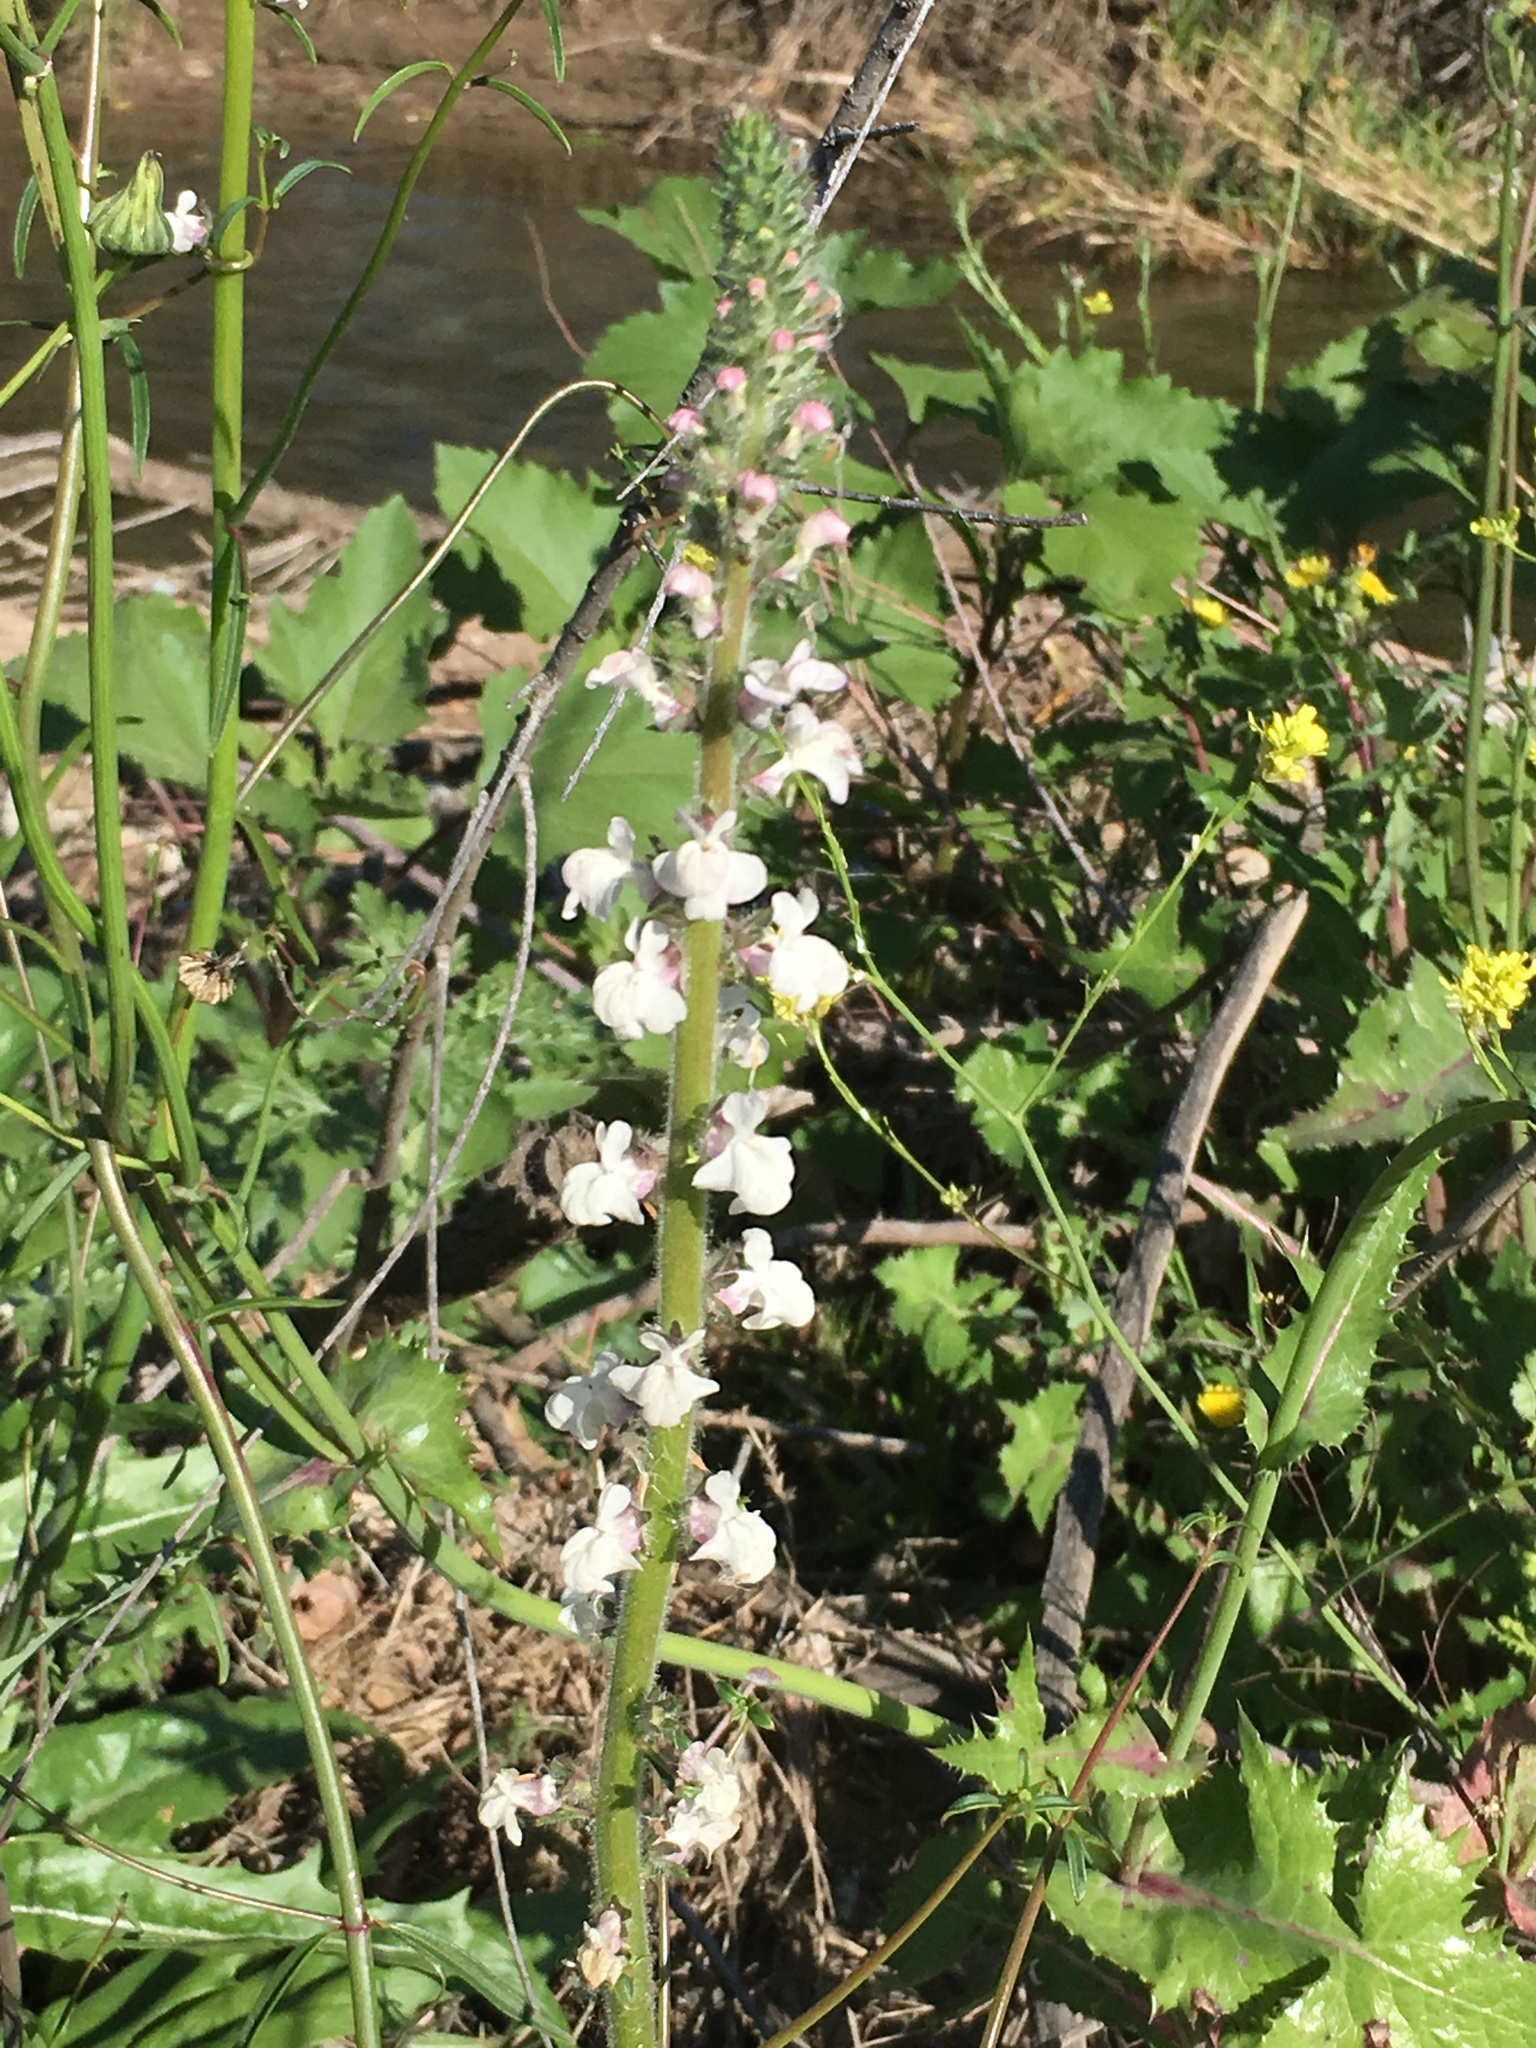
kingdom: Plantae
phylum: Tracheophyta
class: Magnoliopsida
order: Lamiales
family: Plantaginaceae
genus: Sairocarpus
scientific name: Sairocarpus coulterianus
